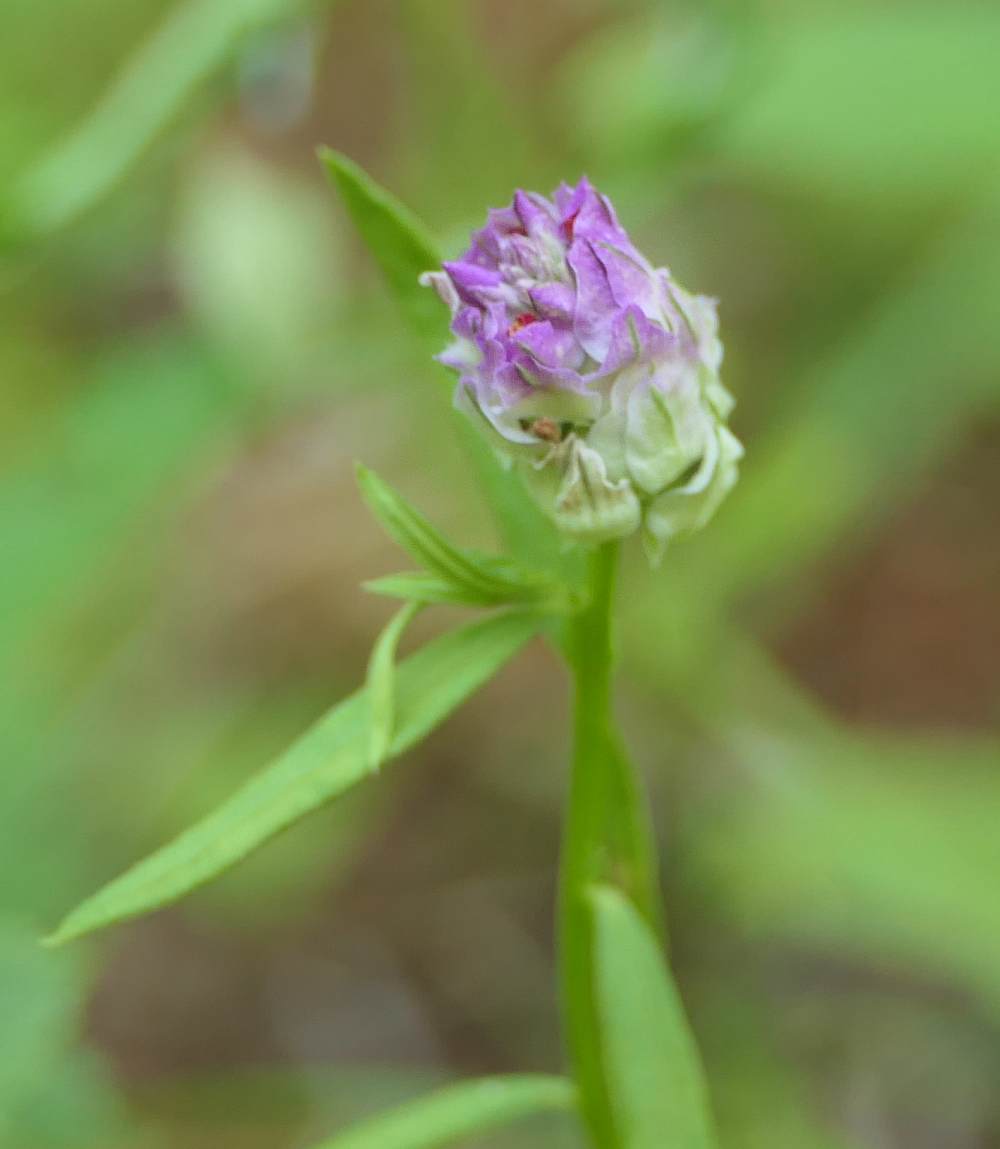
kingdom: Plantae
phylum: Tracheophyta
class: Magnoliopsida
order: Fabales
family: Polygalaceae
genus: Polygala
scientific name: Polygala sanguinea
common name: Blood milkwort
